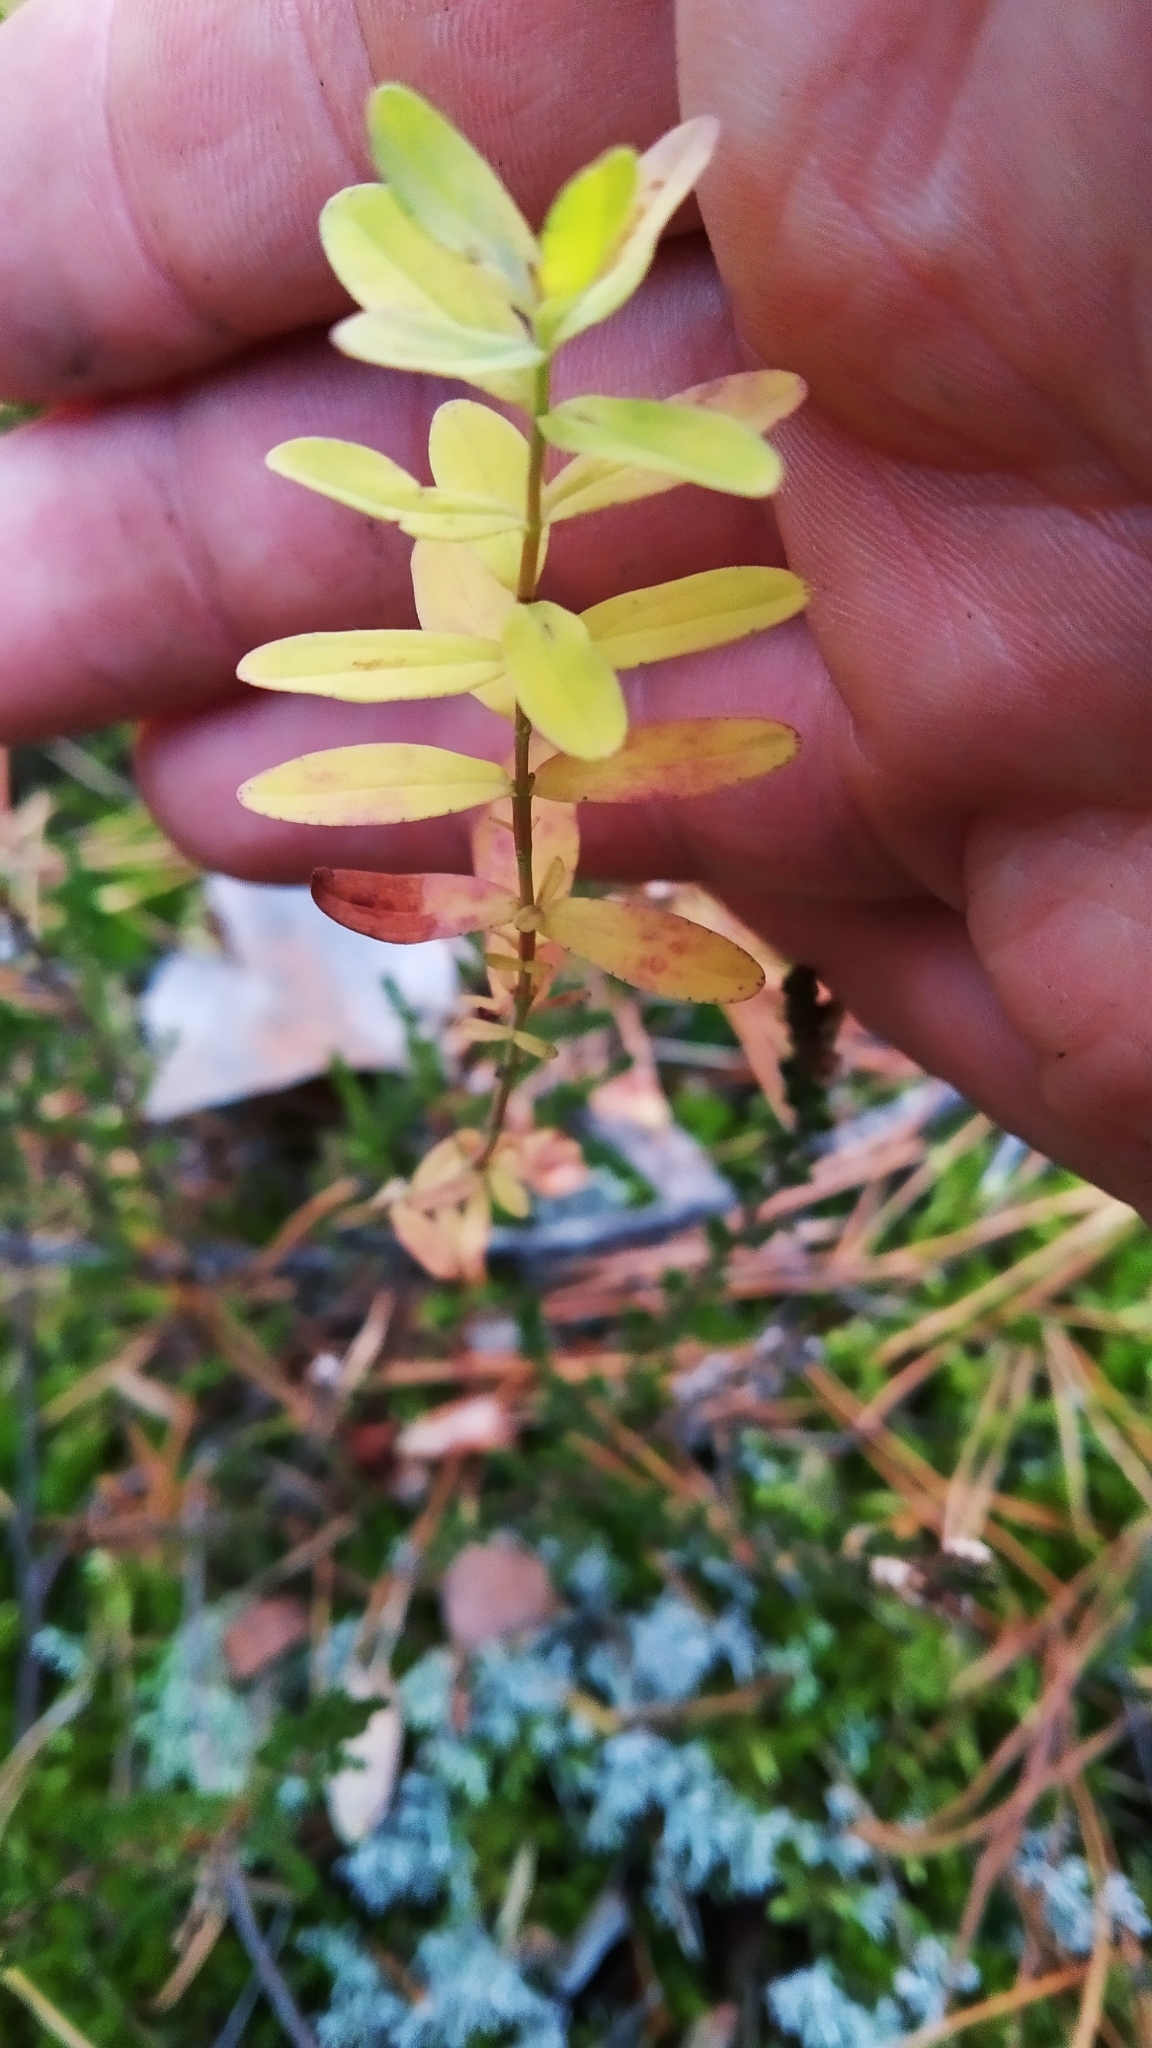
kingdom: Plantae
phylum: Tracheophyta
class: Magnoliopsida
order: Malpighiales
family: Hypericaceae
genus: Hypericum
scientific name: Hypericum perforatum
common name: Common st. johnswort
